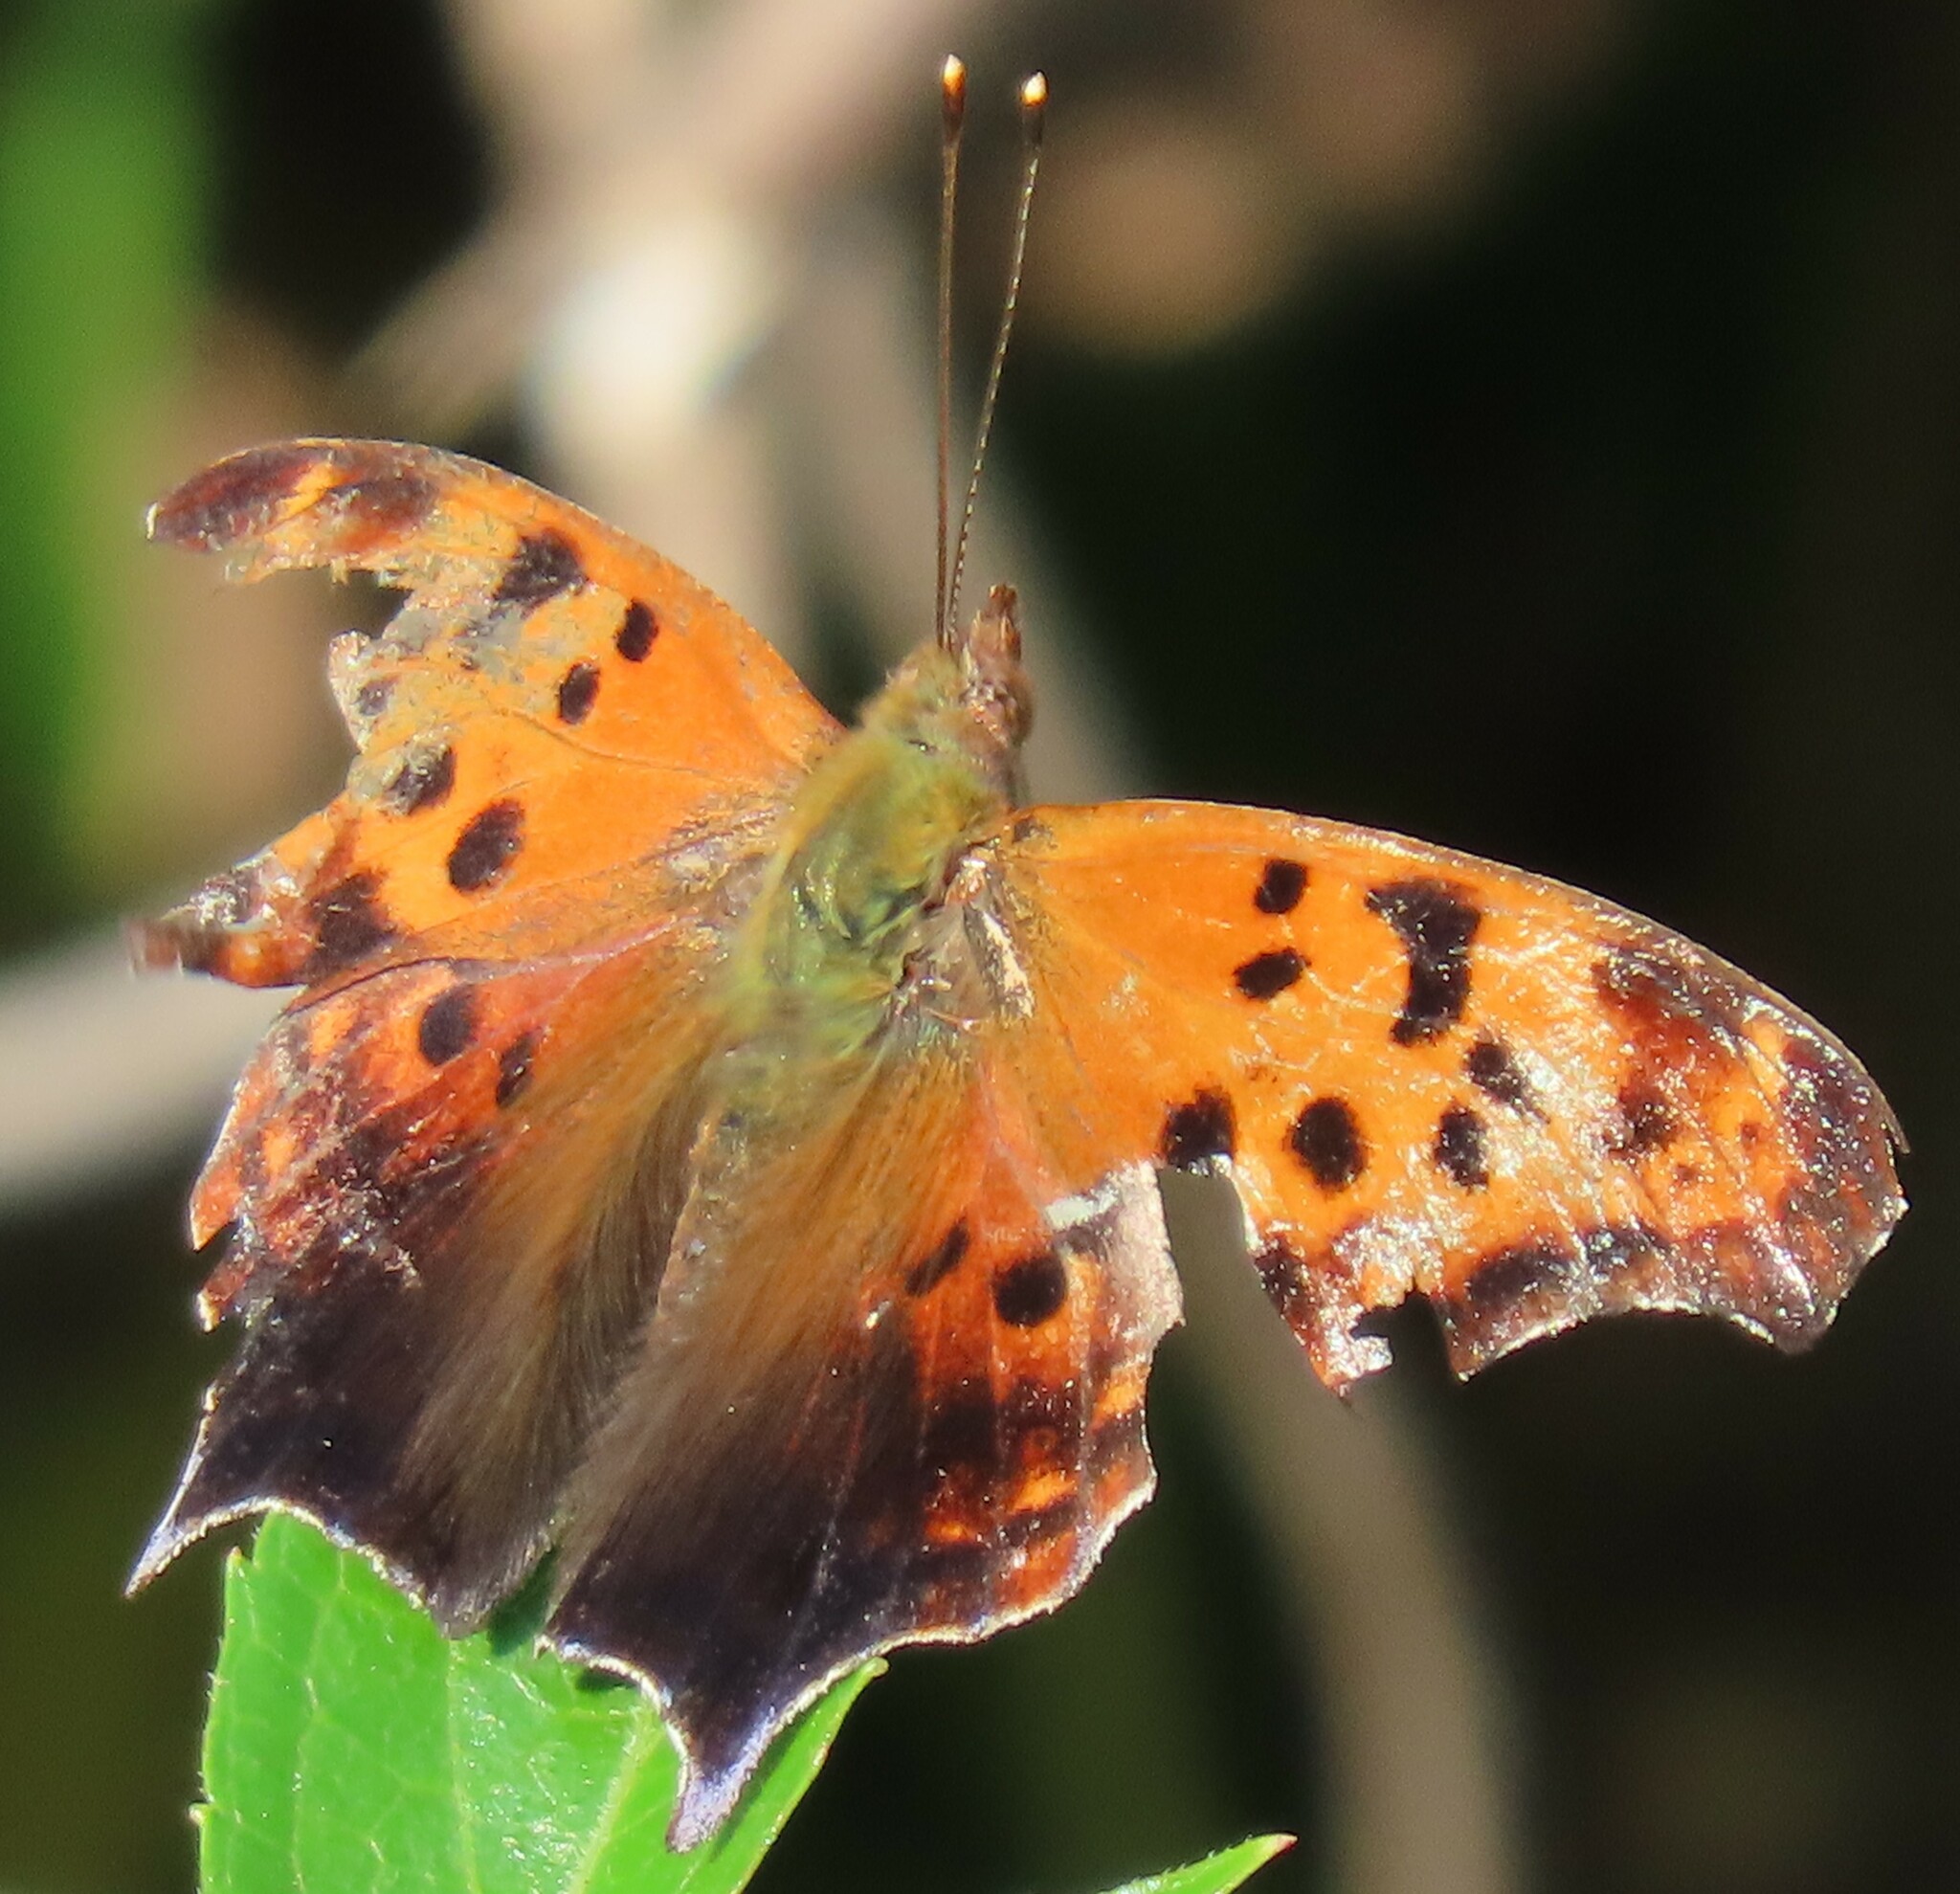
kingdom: Animalia
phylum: Arthropoda
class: Insecta
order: Lepidoptera
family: Nymphalidae
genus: Polygonia
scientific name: Polygonia interrogationis
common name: Question mark
